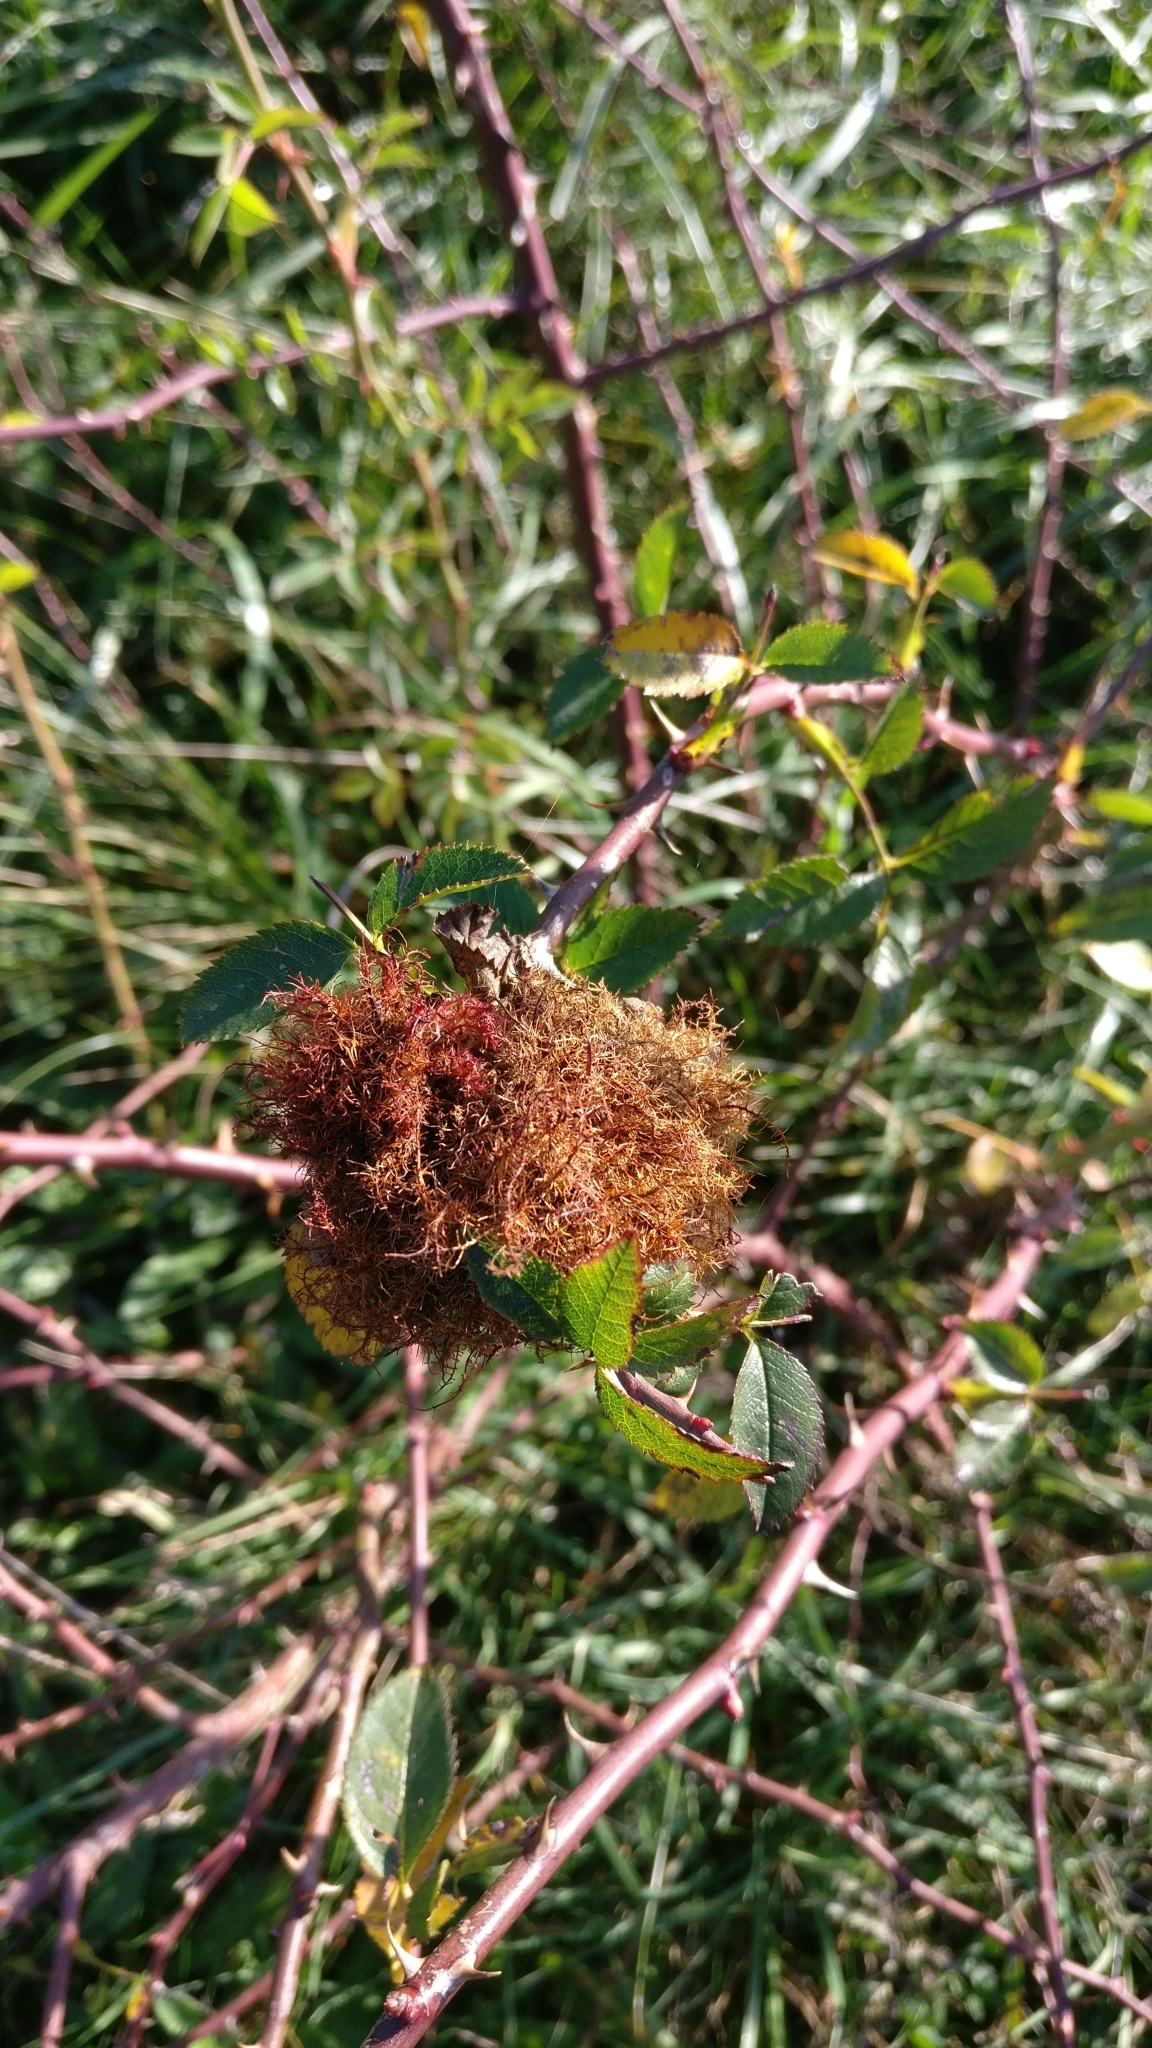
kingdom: Animalia
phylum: Arthropoda
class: Insecta
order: Hymenoptera
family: Cynipidae
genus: Diplolepis
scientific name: Diplolepis rosae
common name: Bedeguar gall
